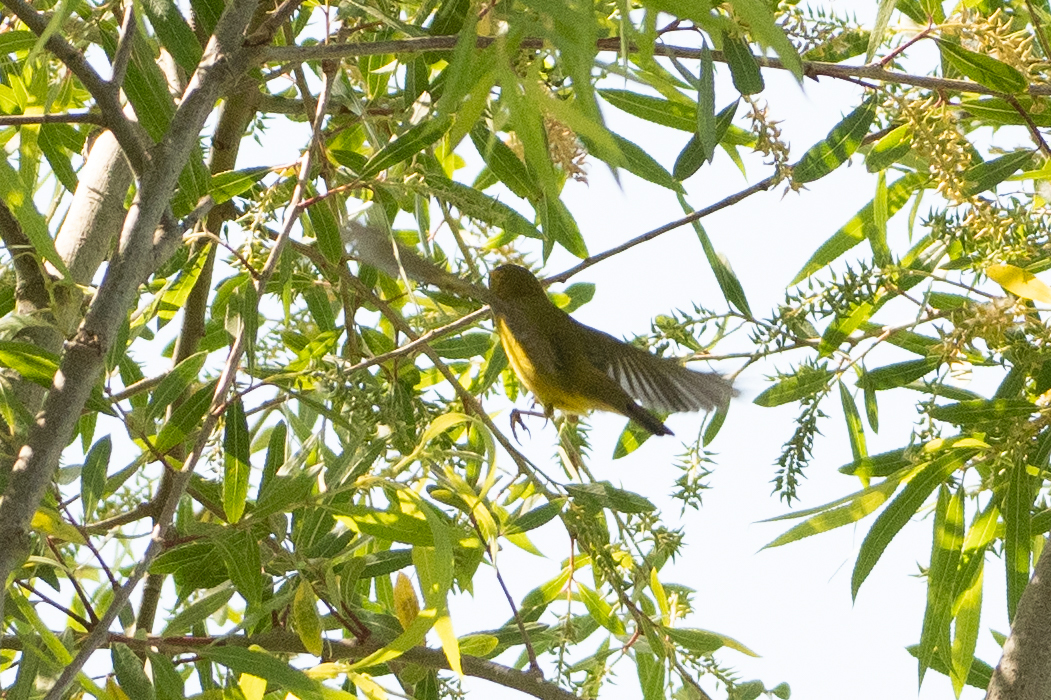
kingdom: Animalia
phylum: Chordata
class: Aves
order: Passeriformes
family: Parulidae
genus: Cardellina
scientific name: Cardellina pusilla
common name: Wilson's warbler
